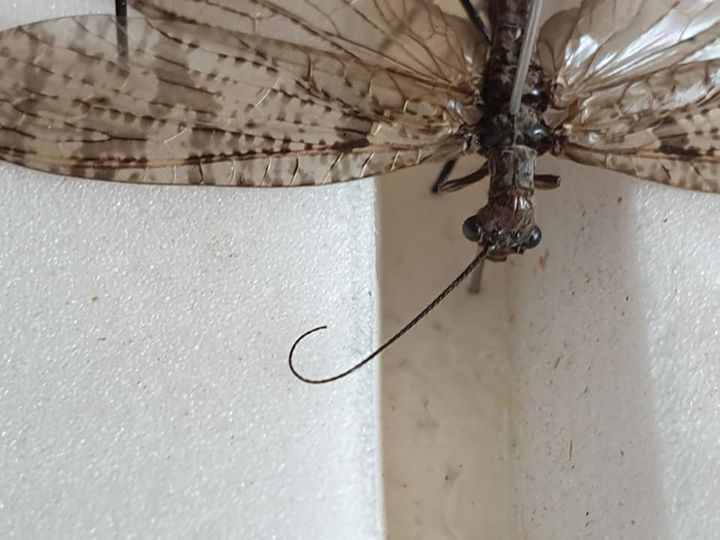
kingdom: Animalia
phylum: Arthropoda
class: Insecta
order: Megaloptera
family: Corydalidae
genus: Archichauliodes
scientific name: Archichauliodes diversus
